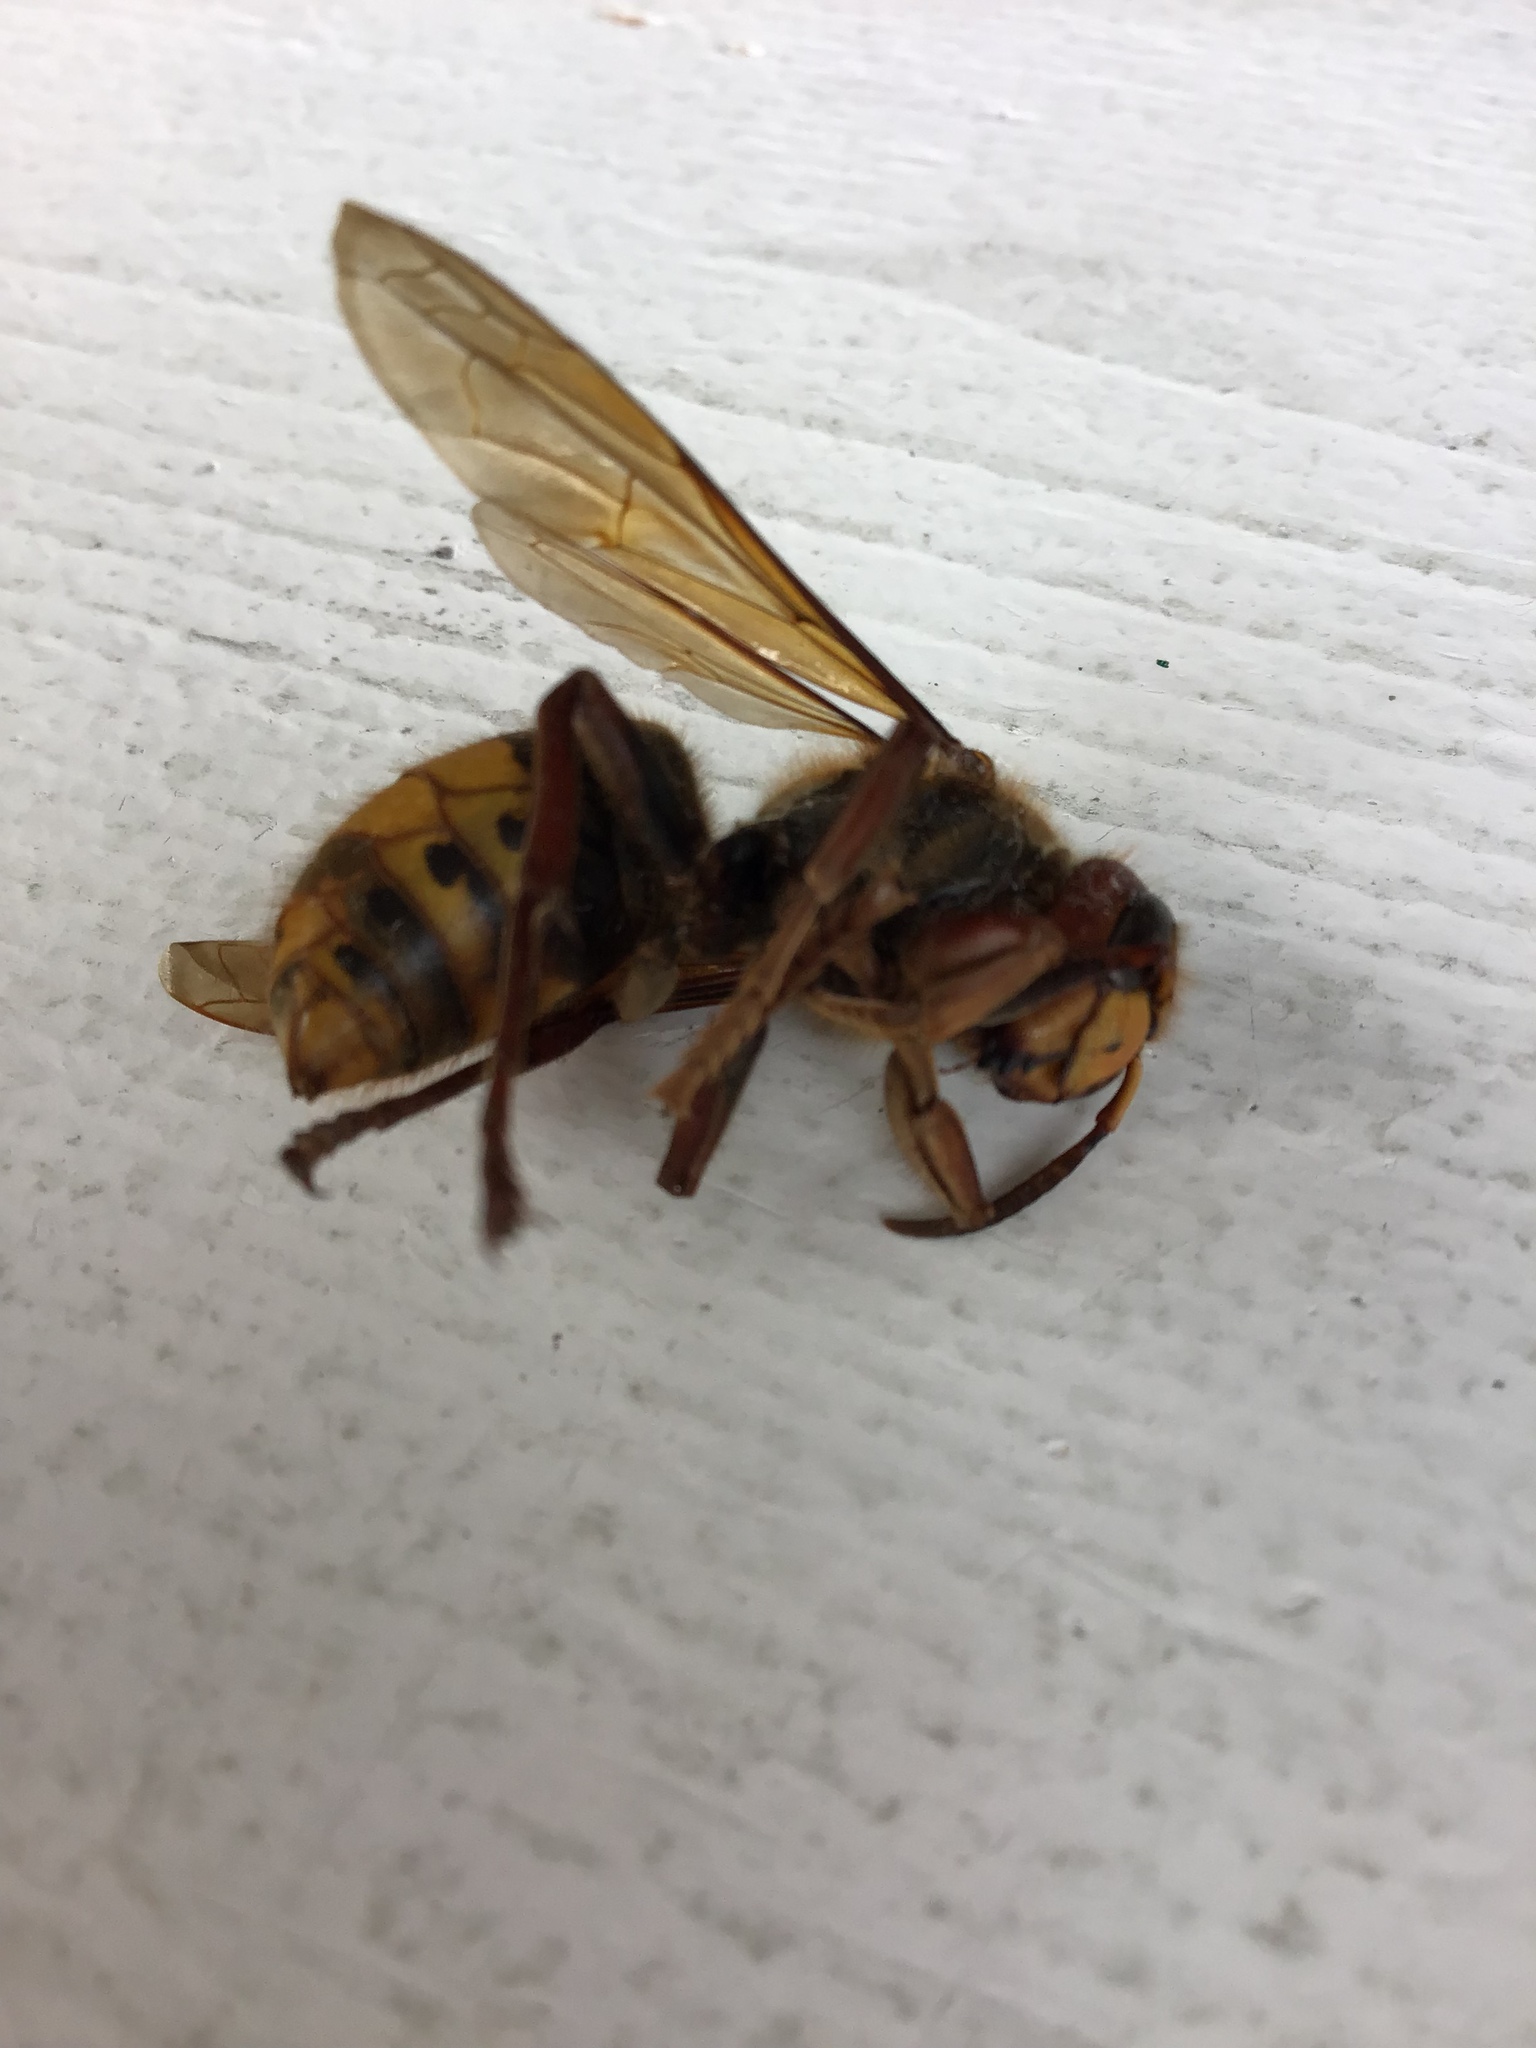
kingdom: Animalia
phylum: Arthropoda
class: Insecta
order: Hymenoptera
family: Vespidae
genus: Vespa
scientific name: Vespa crabro
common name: Hornet
